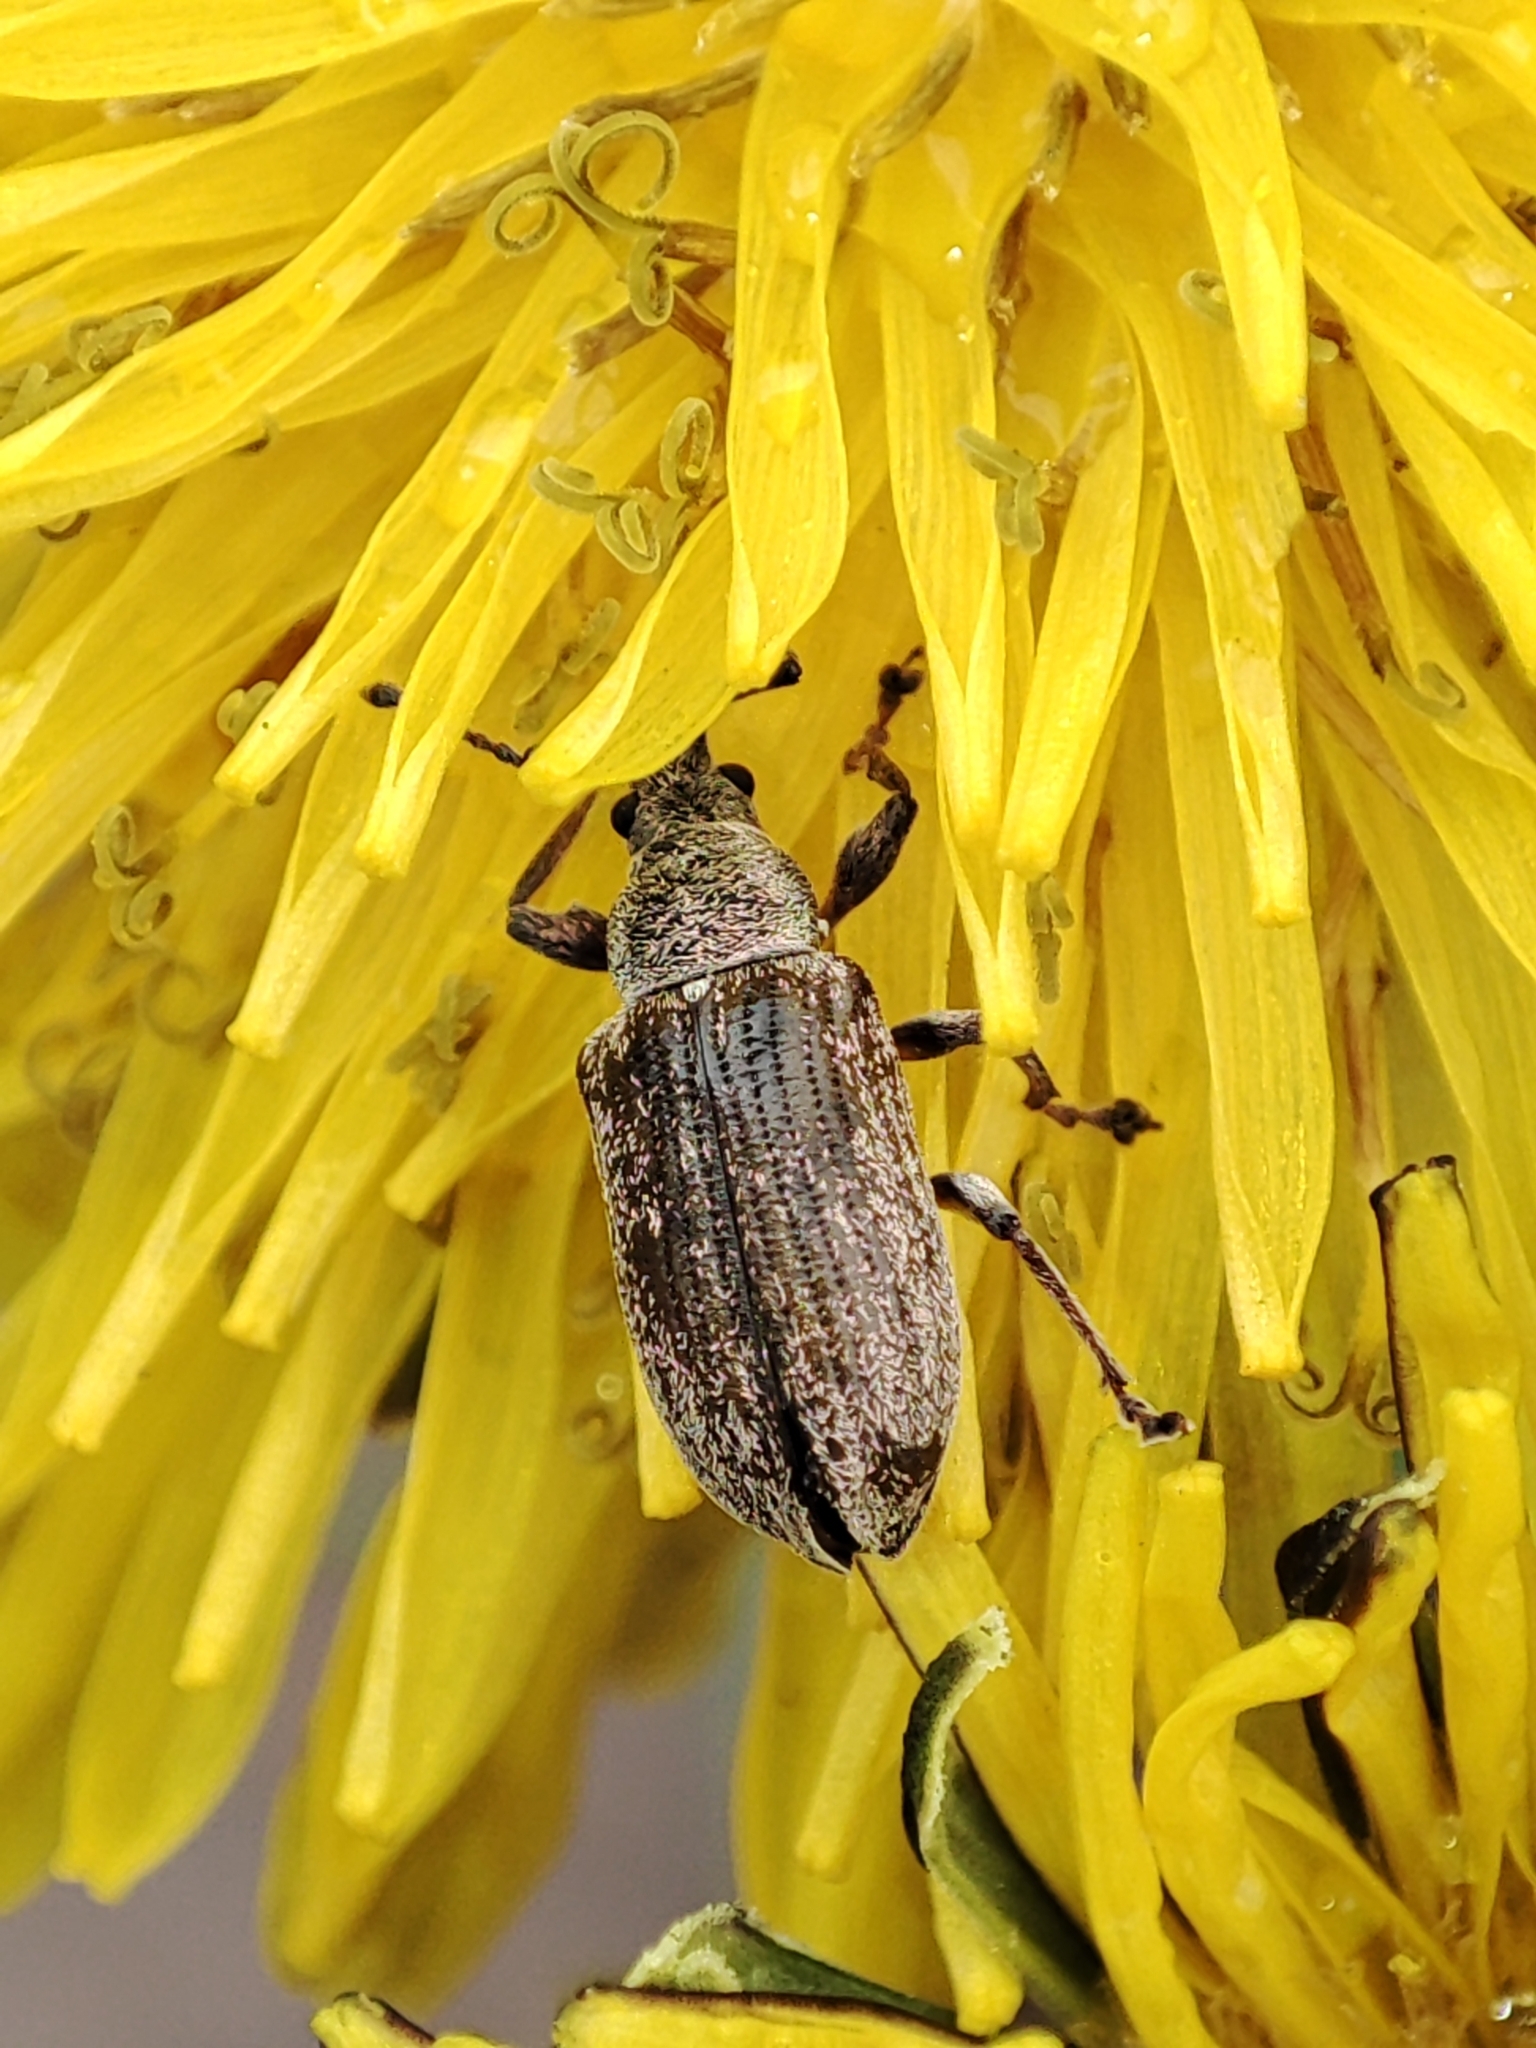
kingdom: Animalia
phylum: Arthropoda
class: Insecta
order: Coleoptera
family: Curculionidae
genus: Phyllobius
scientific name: Phyllobius pyri
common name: Common leaf weevil
